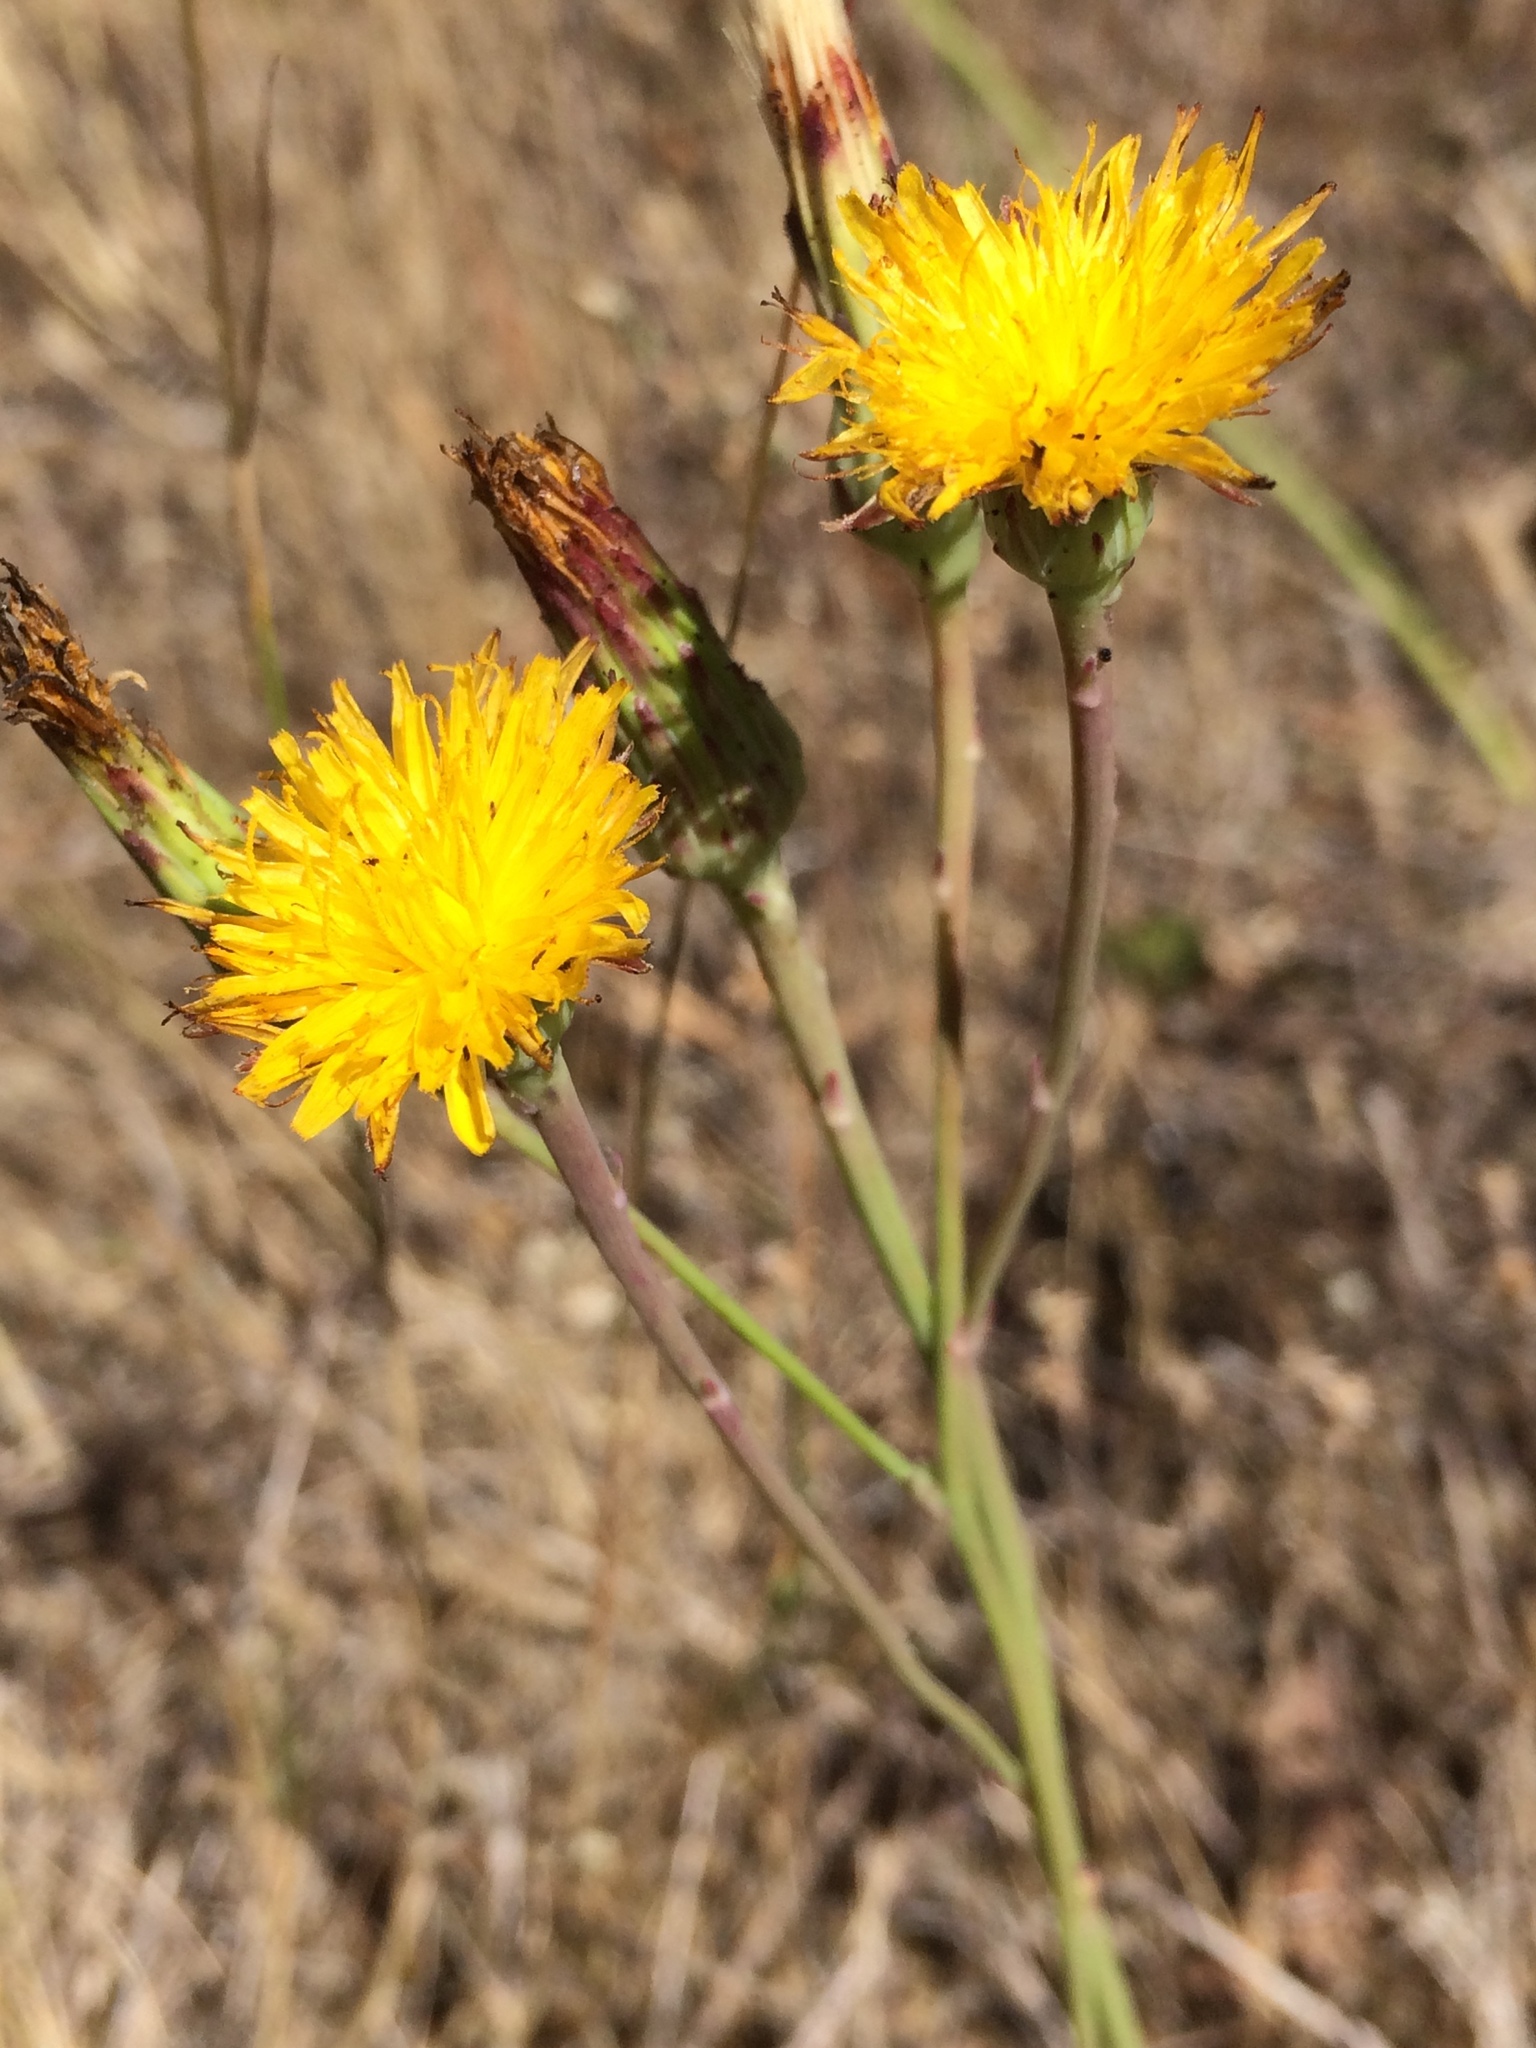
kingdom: Plantae
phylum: Tracheophyta
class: Magnoliopsida
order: Asterales
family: Asteraceae
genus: Hypochaeris
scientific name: Hypochaeris radicata
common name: Flatweed
